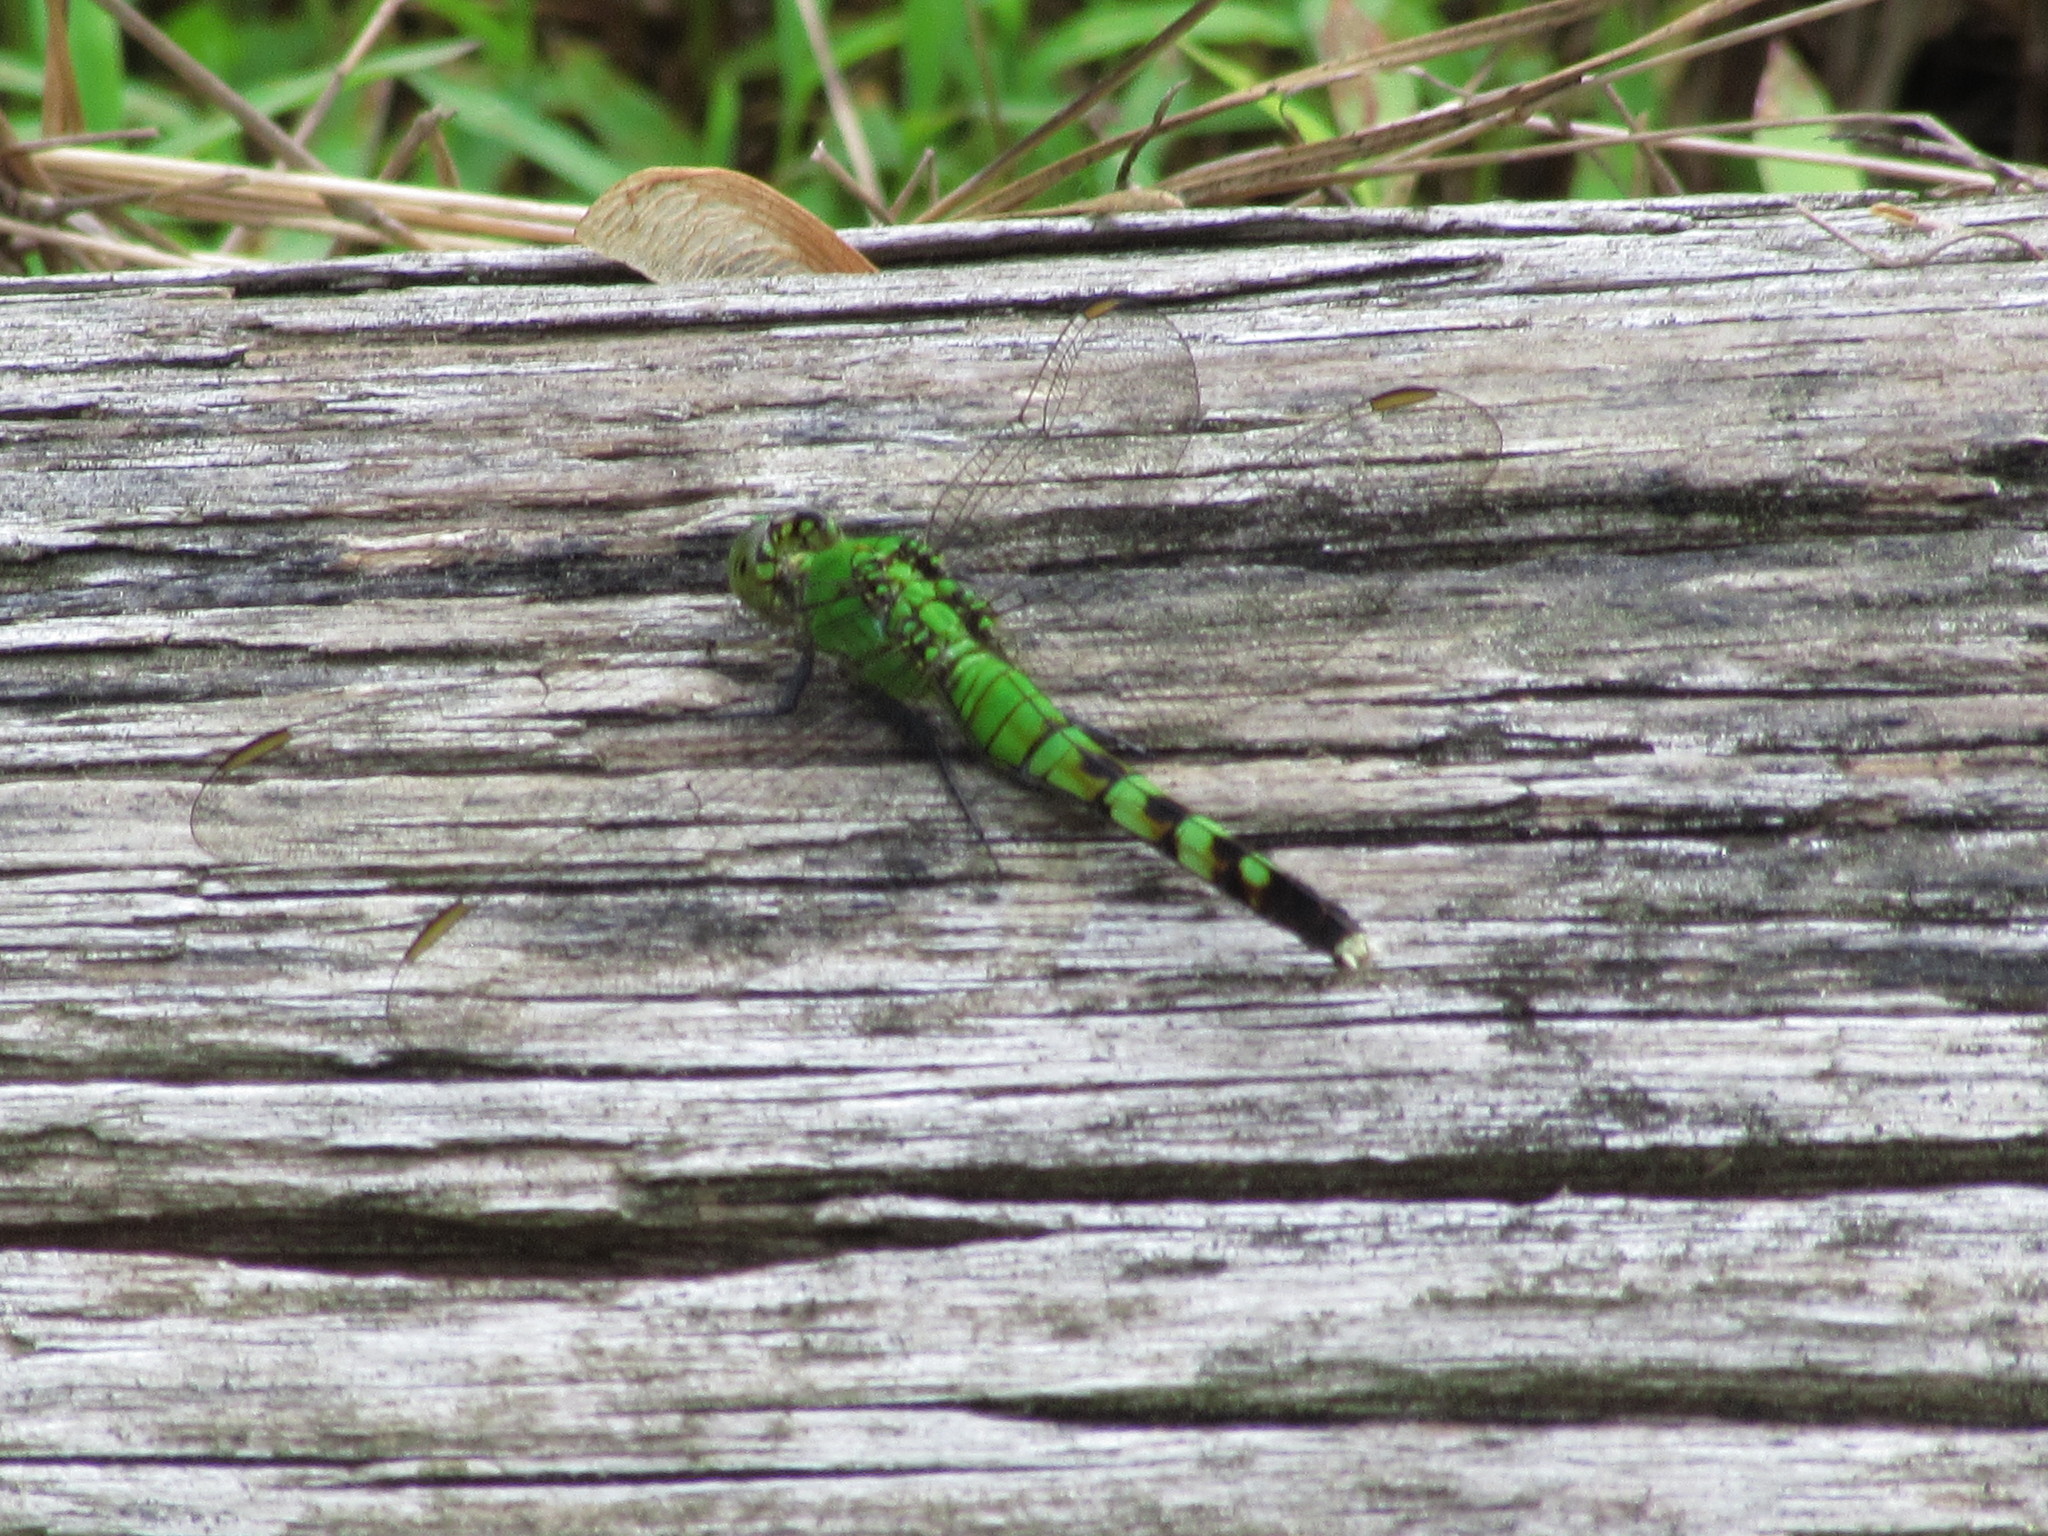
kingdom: Animalia
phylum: Arthropoda
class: Insecta
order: Odonata
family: Libellulidae
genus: Erythemis
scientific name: Erythemis simplicicollis
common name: Eastern pondhawk
